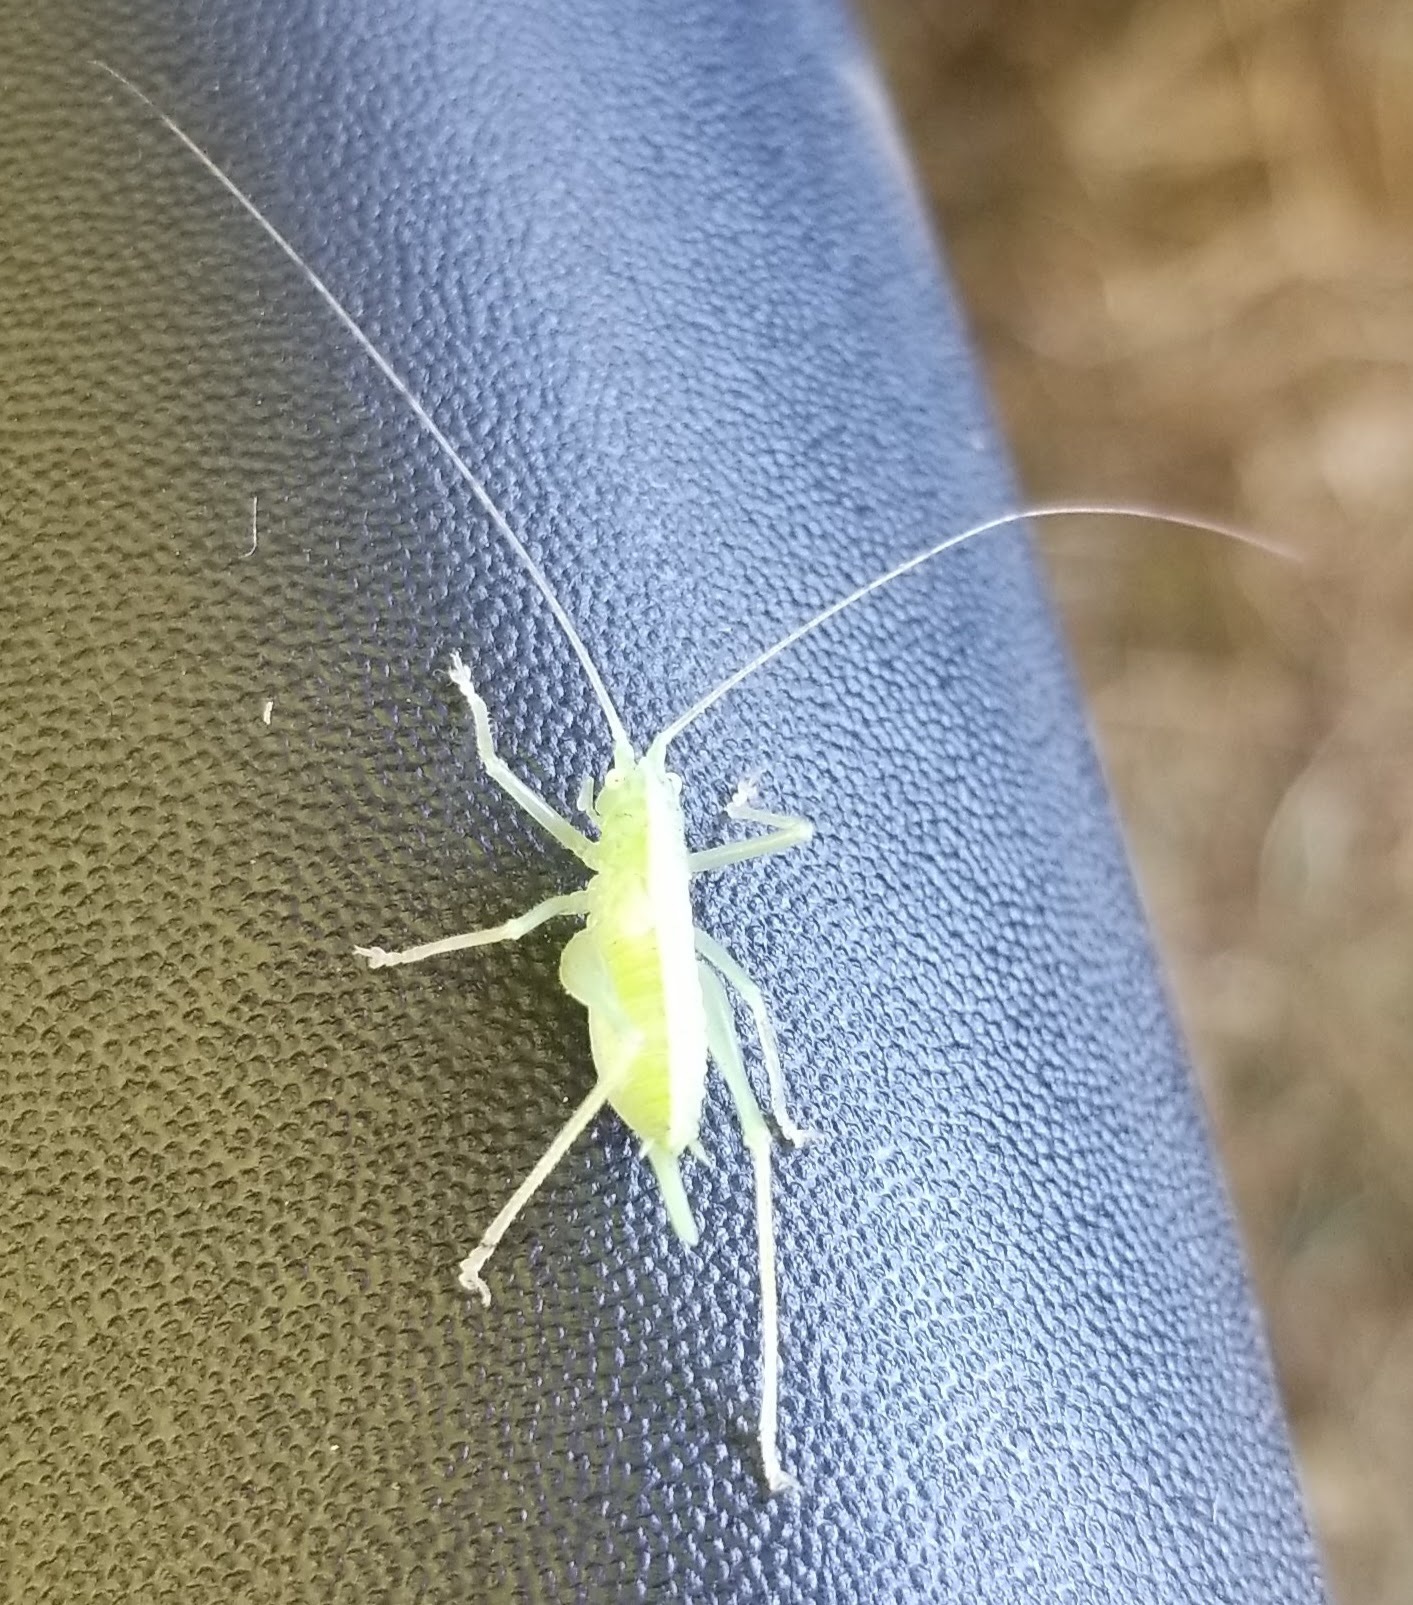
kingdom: Animalia
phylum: Arthropoda
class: Insecta
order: Orthoptera
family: Tettigoniidae
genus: Meconema
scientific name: Meconema thalassinum
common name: Oak bush-cricket
